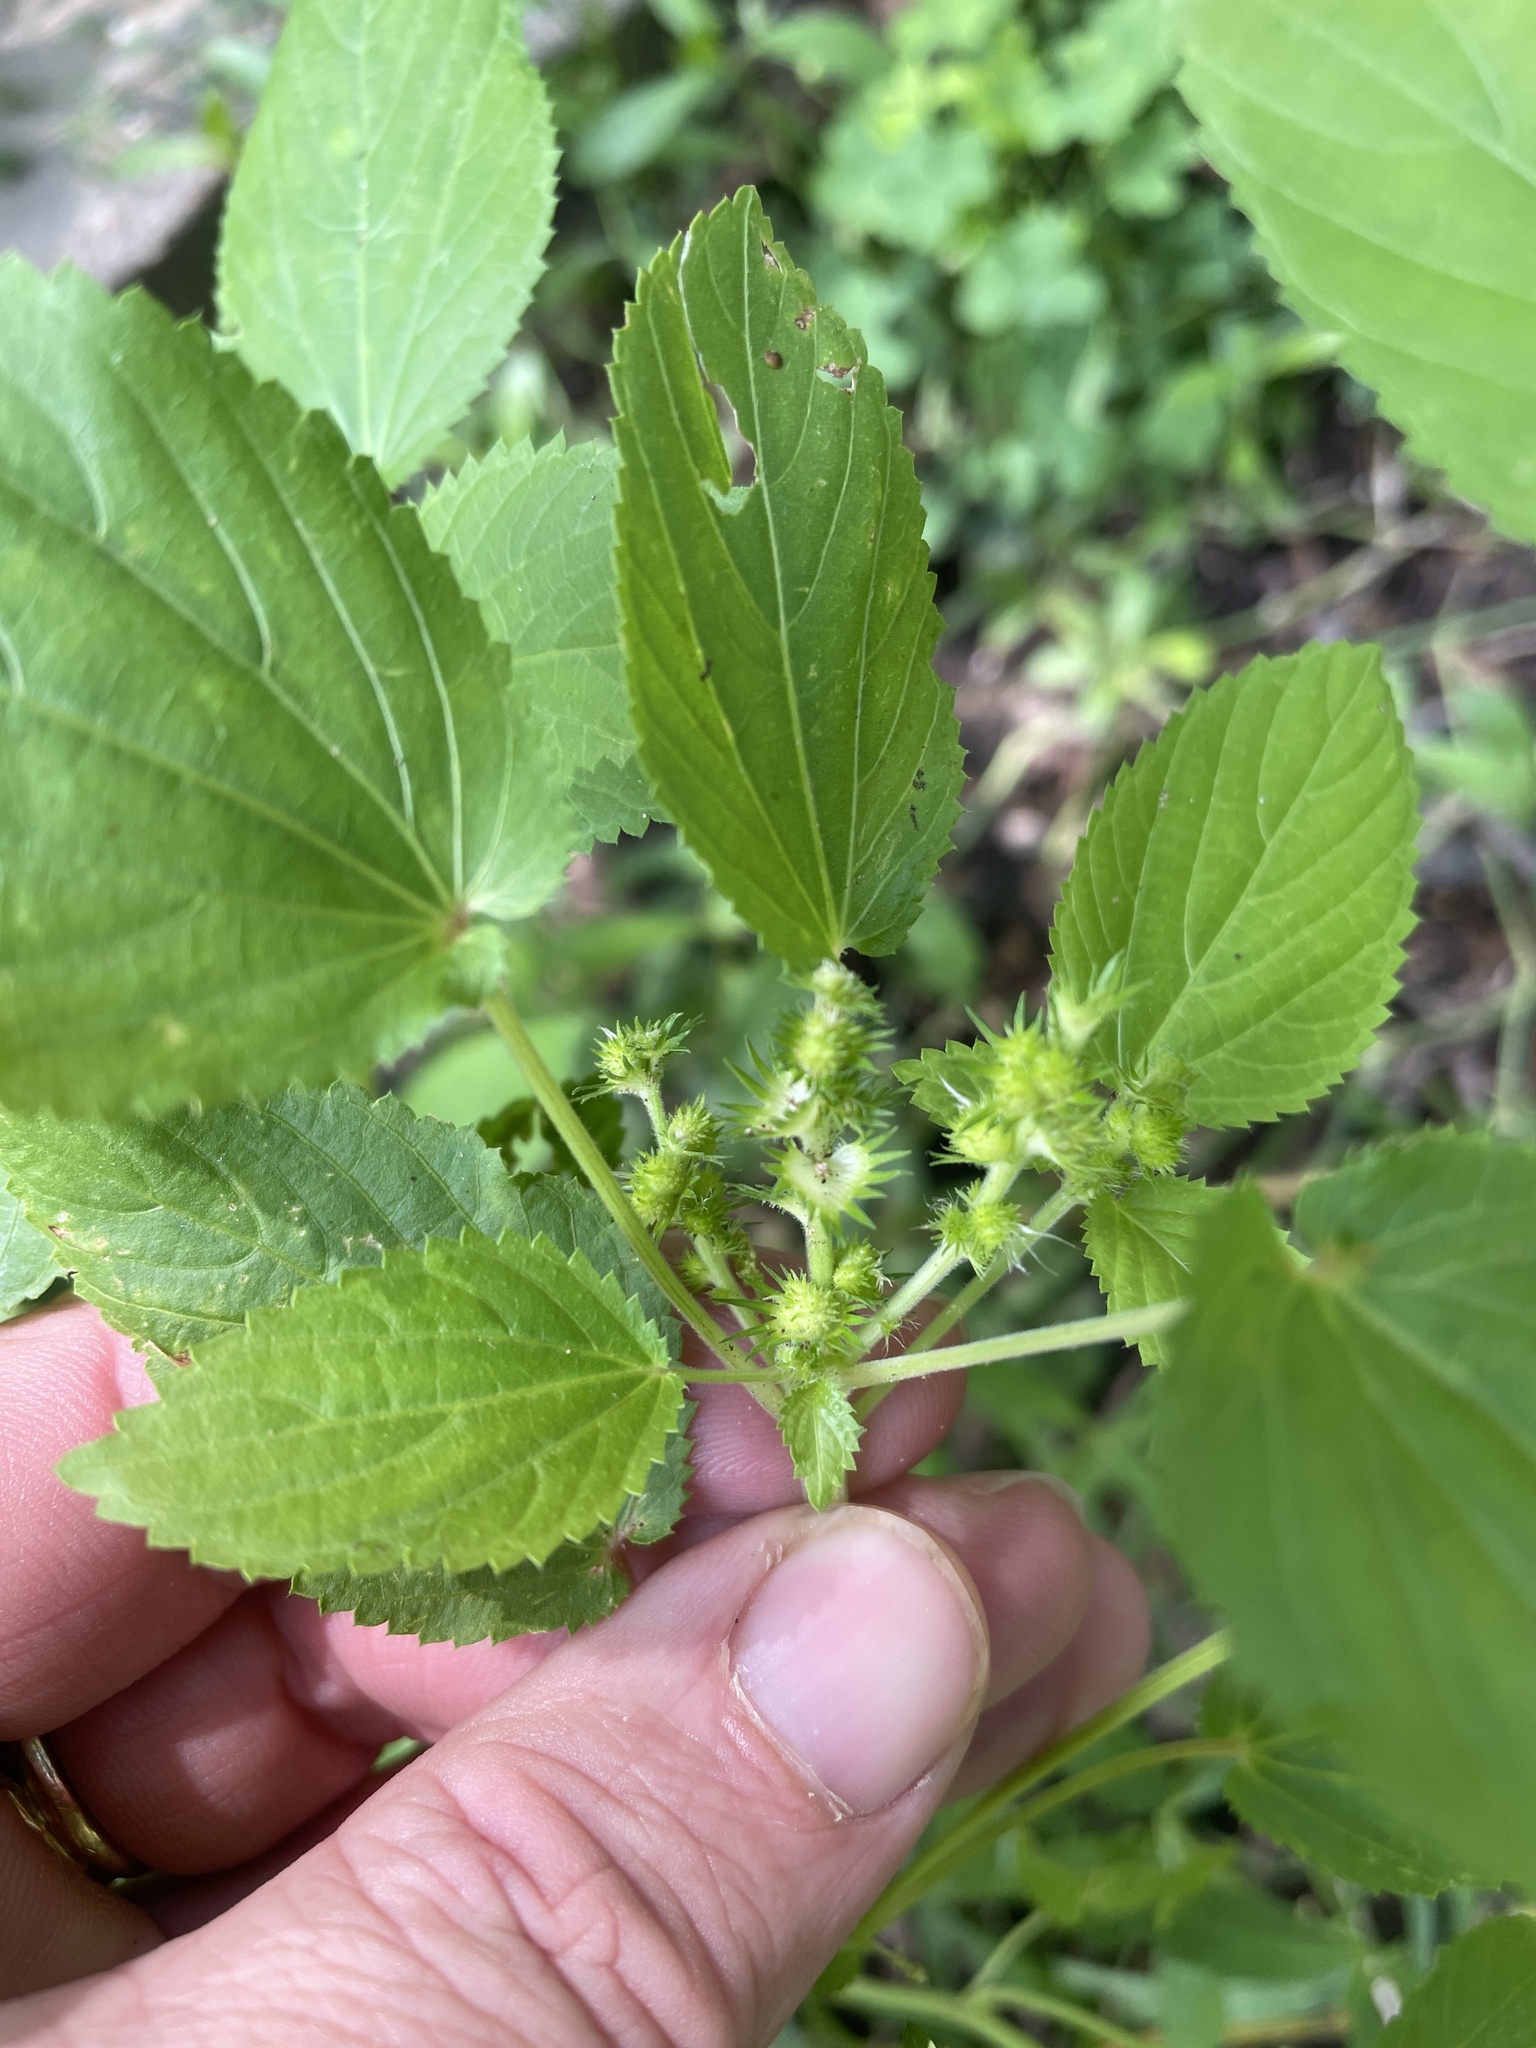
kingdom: Plantae
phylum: Tracheophyta
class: Magnoliopsida
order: Malpighiales
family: Euphorbiaceae
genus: Acalypha
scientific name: Acalypha ostryifolia
